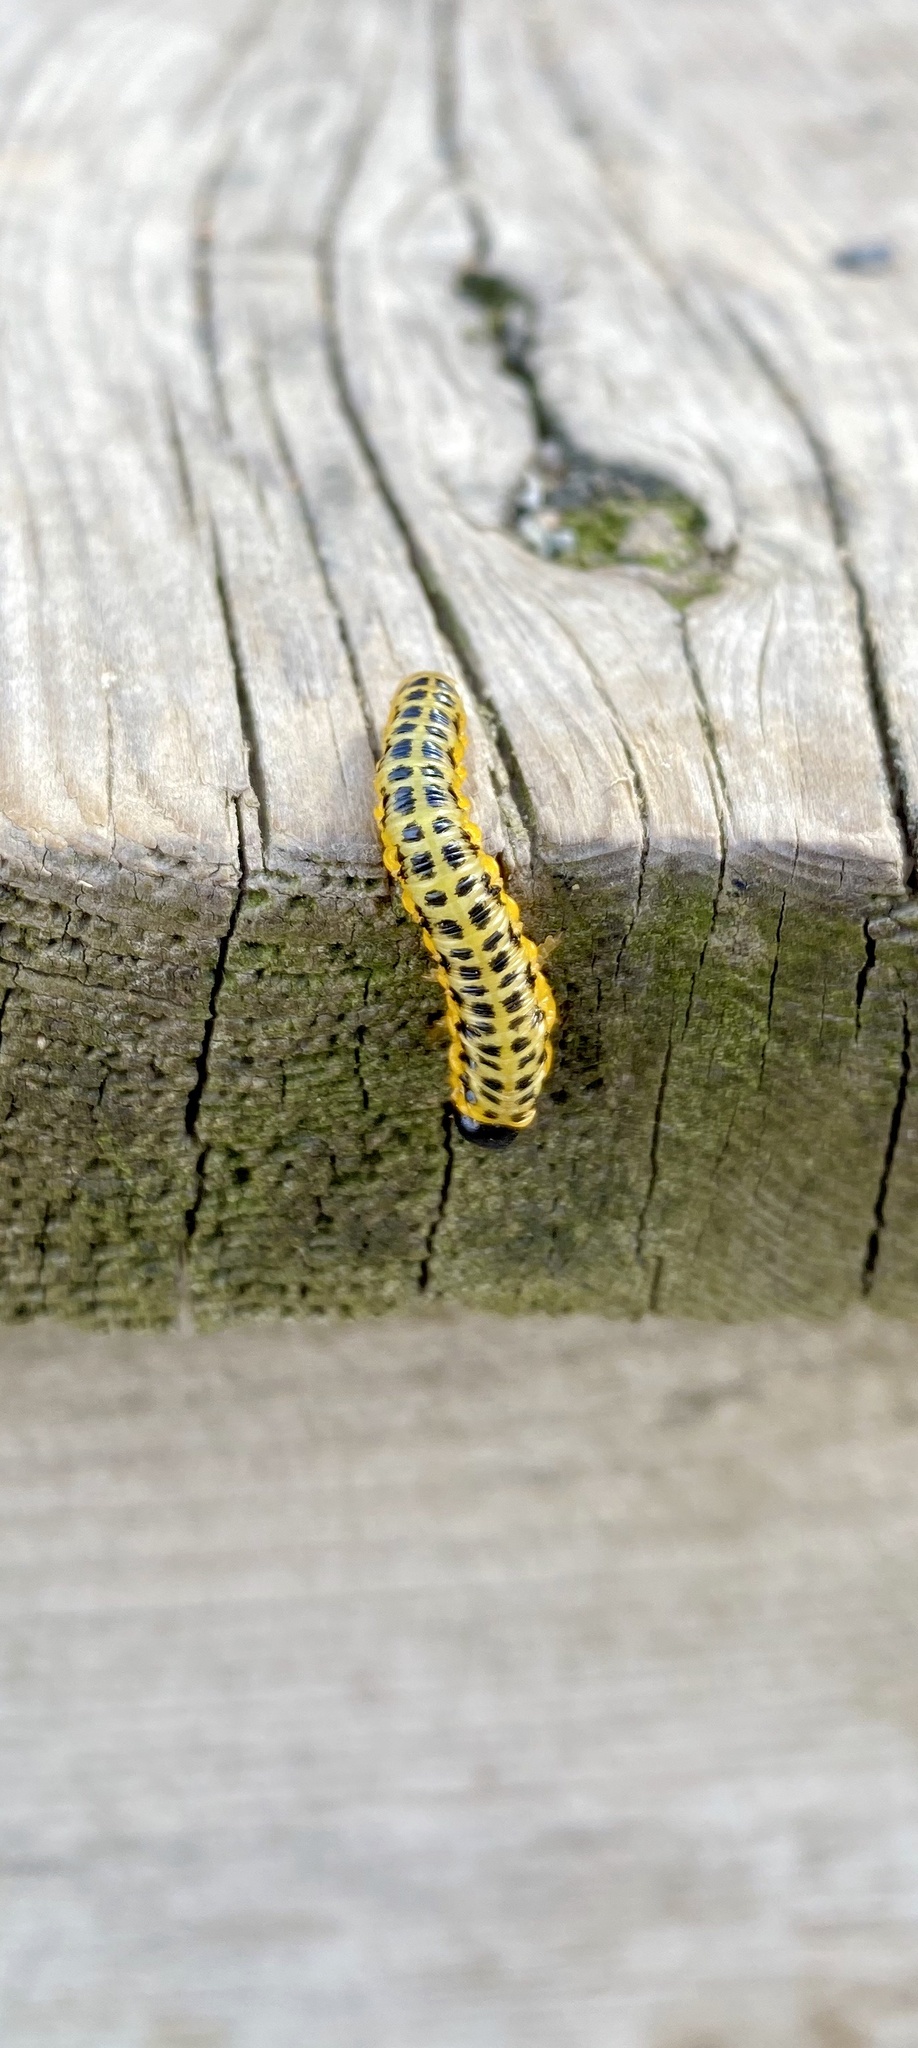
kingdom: Animalia
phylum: Arthropoda
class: Insecta
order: Hymenoptera
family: Tenthredinidae
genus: Macremphytus
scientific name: Macremphytus testaceus
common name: Dogwood sawfly
